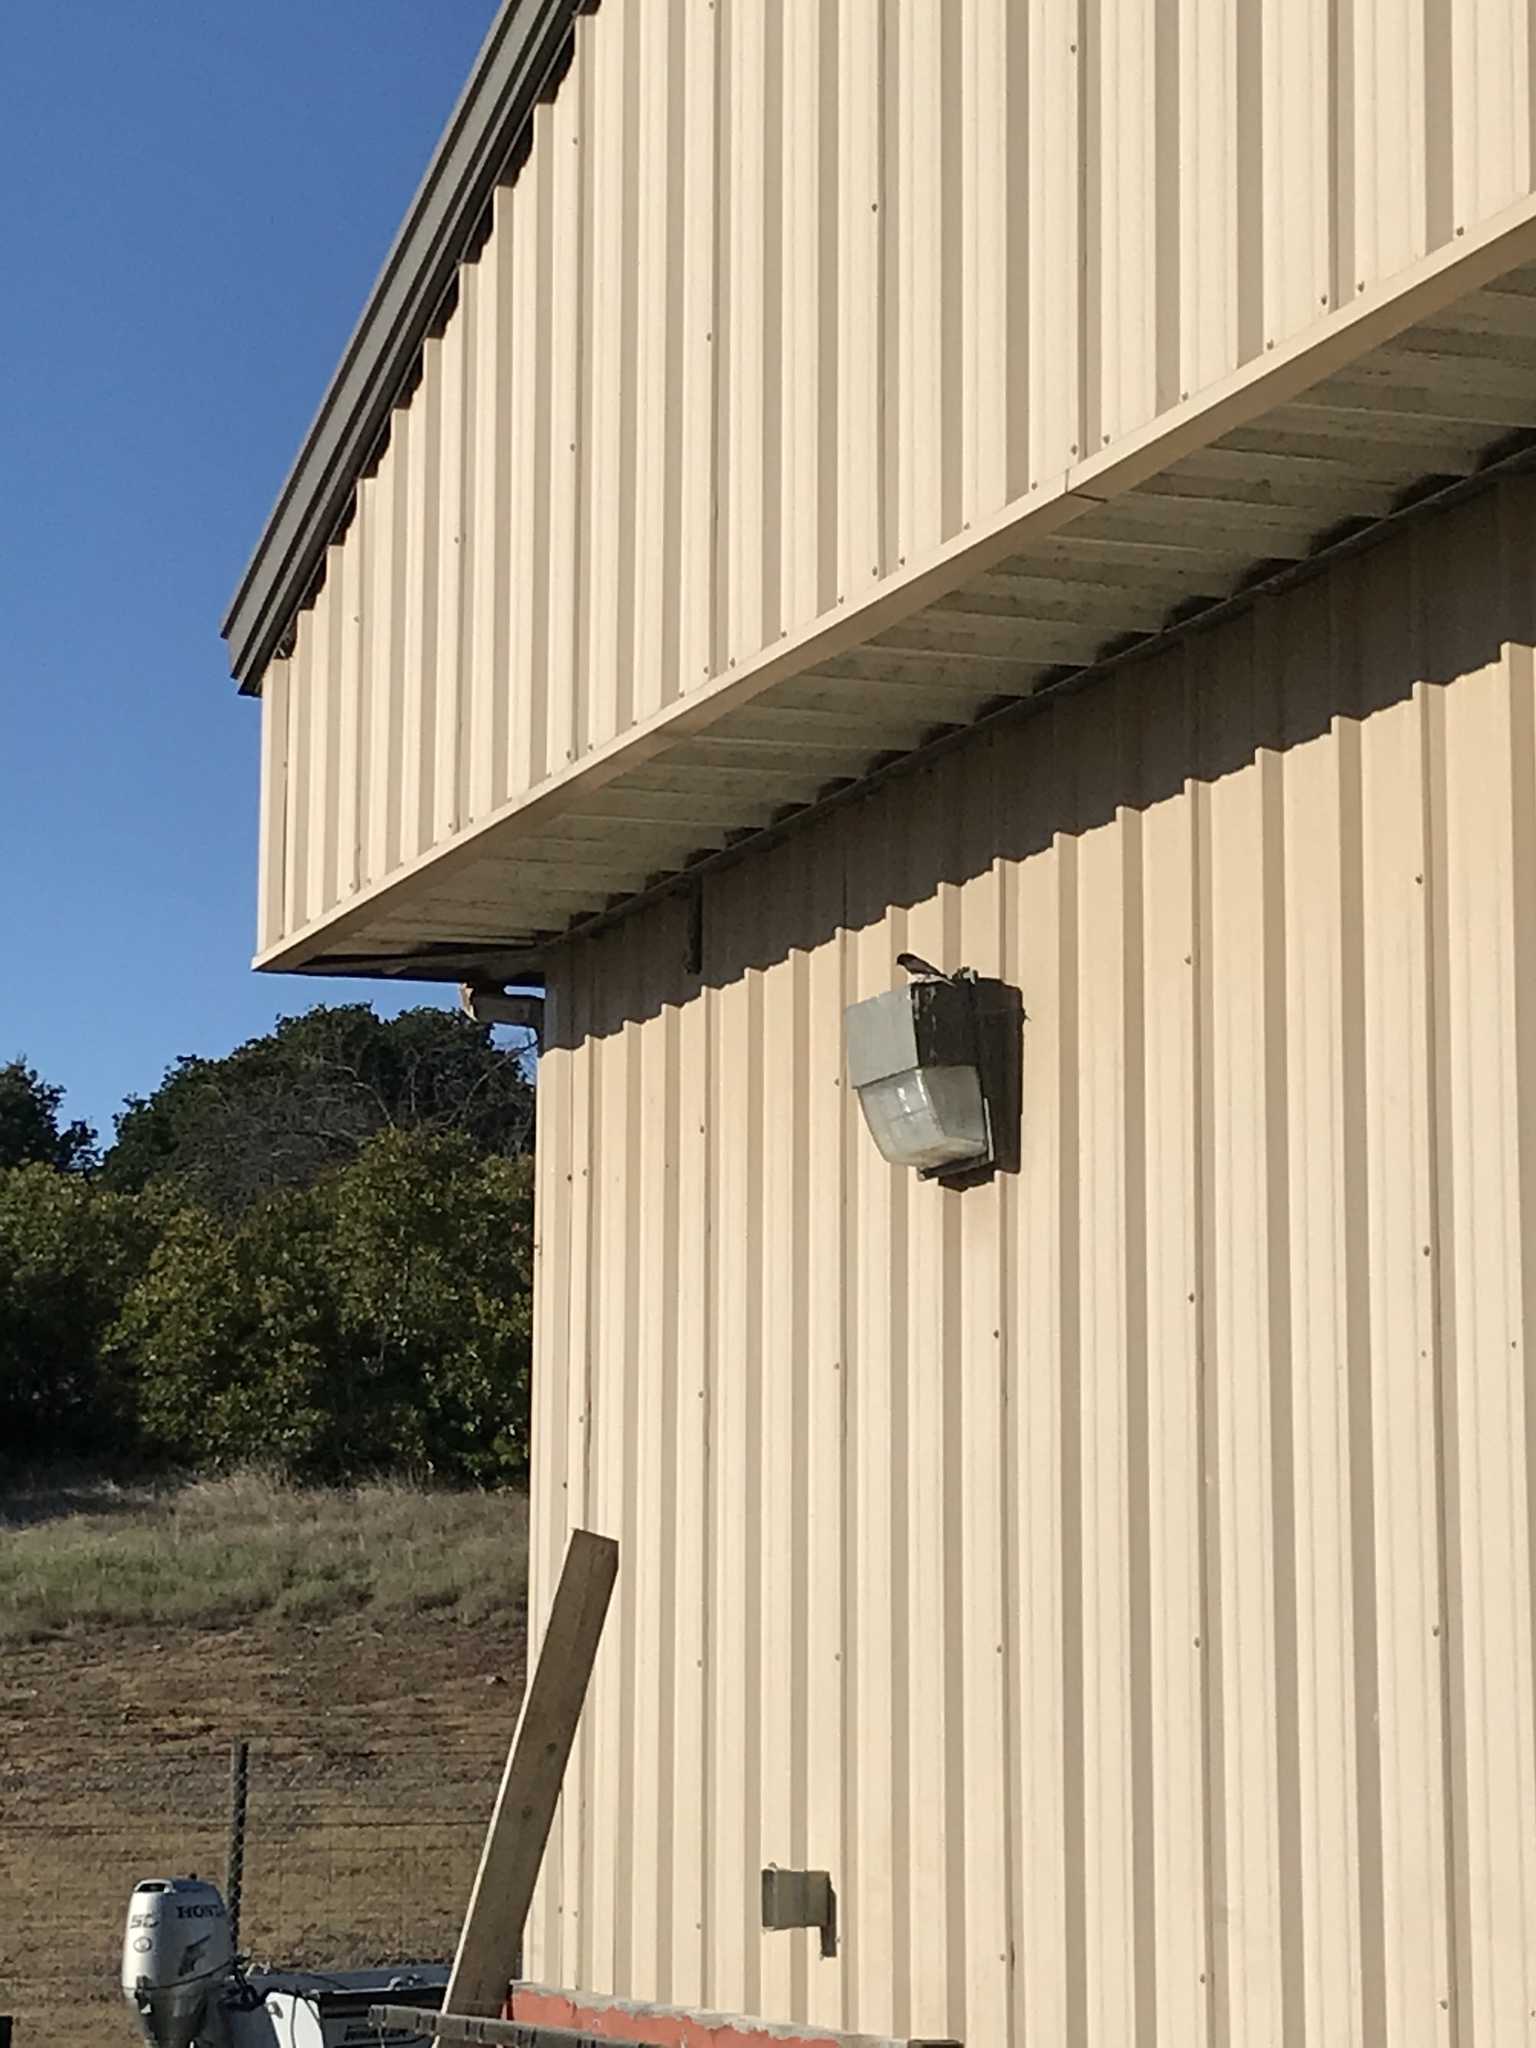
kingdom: Animalia
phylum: Chordata
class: Aves
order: Passeriformes
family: Tyrannidae
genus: Sayornis
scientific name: Sayornis nigricans
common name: Black phoebe
